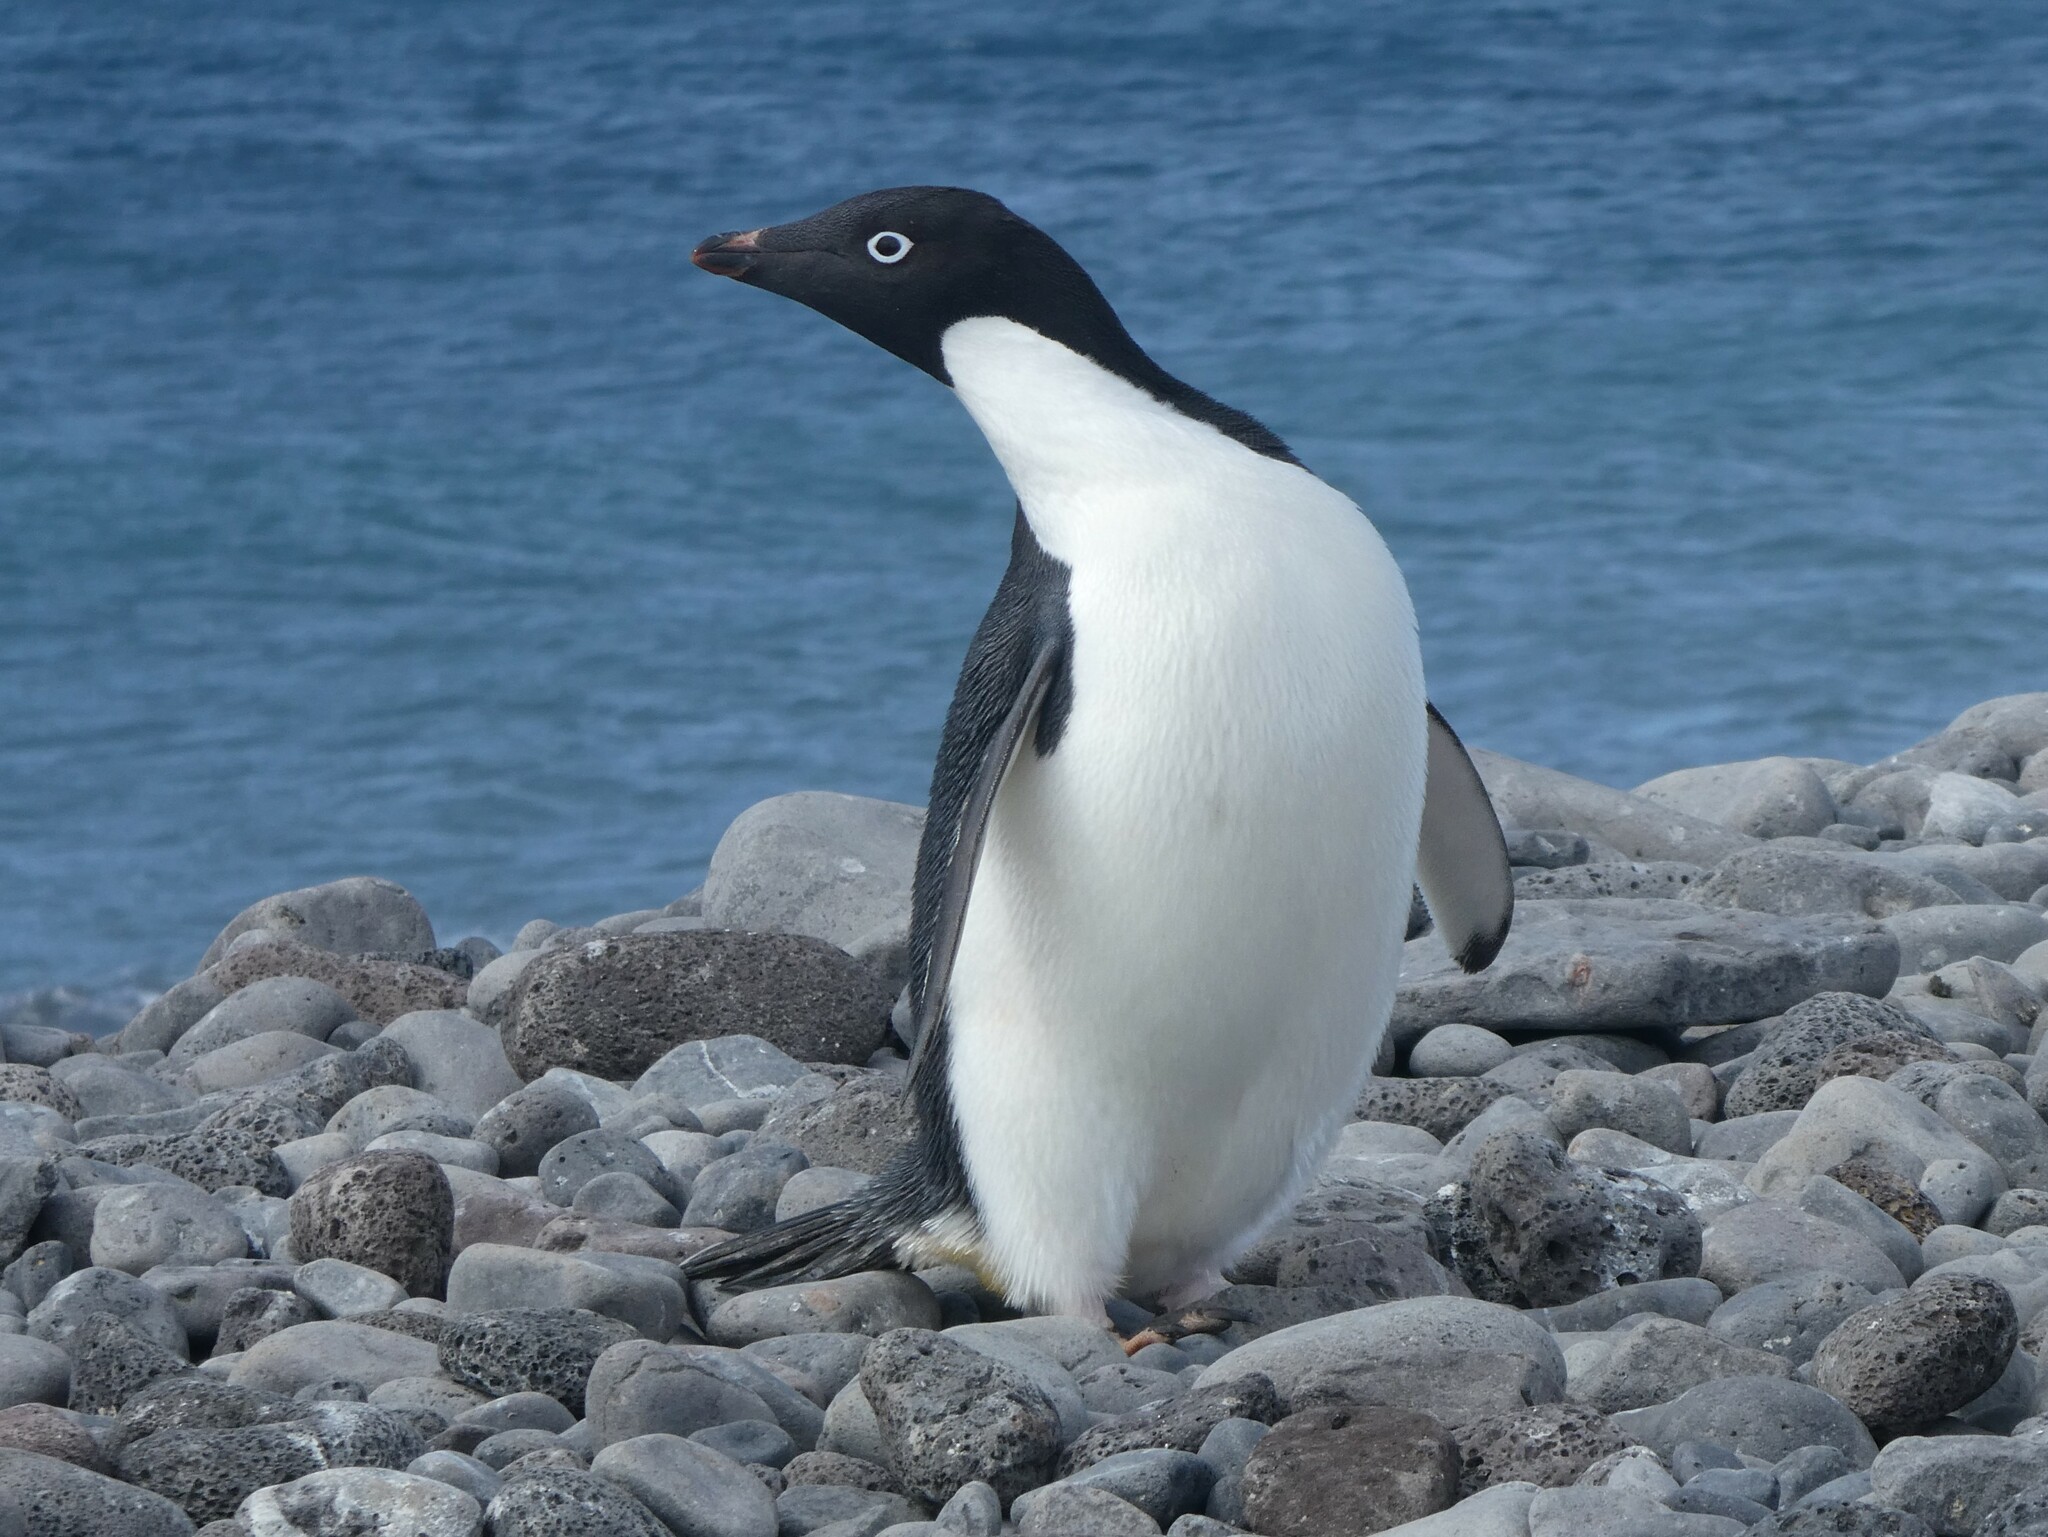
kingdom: Animalia
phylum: Chordata
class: Aves
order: Sphenisciformes
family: Spheniscidae
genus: Pygoscelis
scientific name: Pygoscelis adeliae
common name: Adelie penguin
